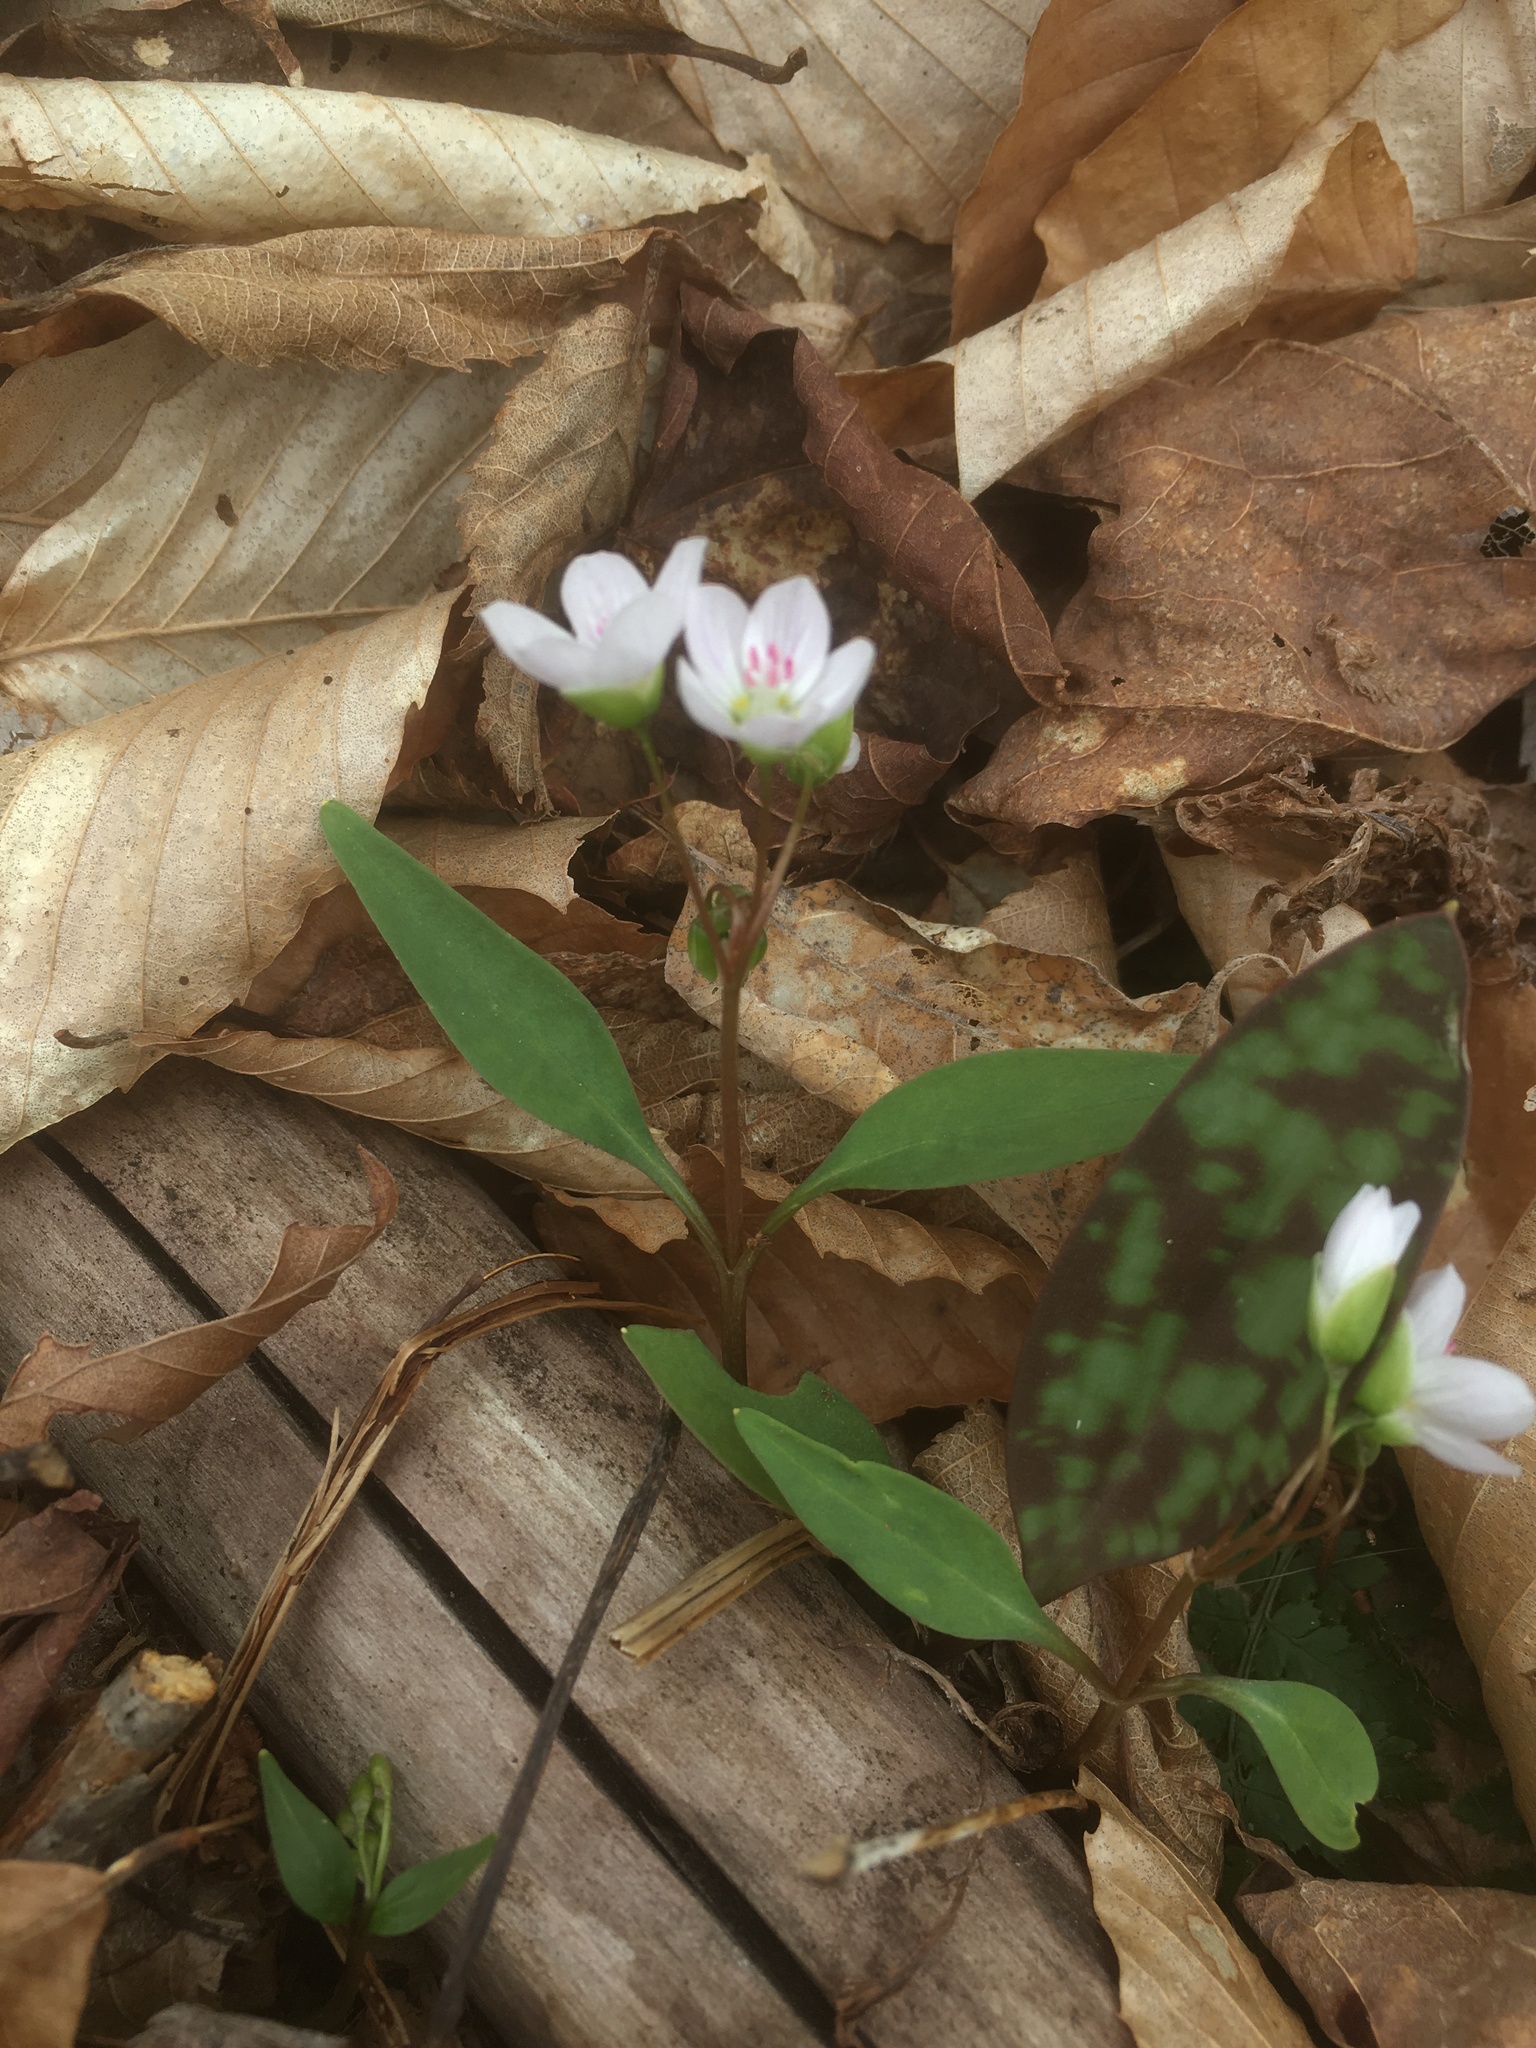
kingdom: Plantae
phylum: Tracheophyta
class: Magnoliopsida
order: Caryophyllales
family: Montiaceae
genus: Claytonia
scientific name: Claytonia caroliniana
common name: Carolina spring beauty
